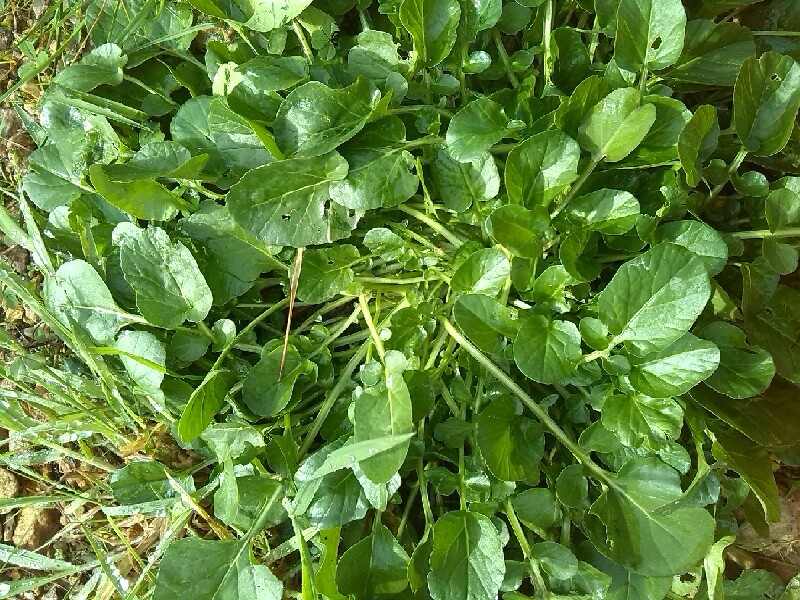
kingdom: Plantae
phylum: Tracheophyta
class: Magnoliopsida
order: Brassicales
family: Brassicaceae
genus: Barbarea
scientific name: Barbarea vulgaris
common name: Cressy-greens
